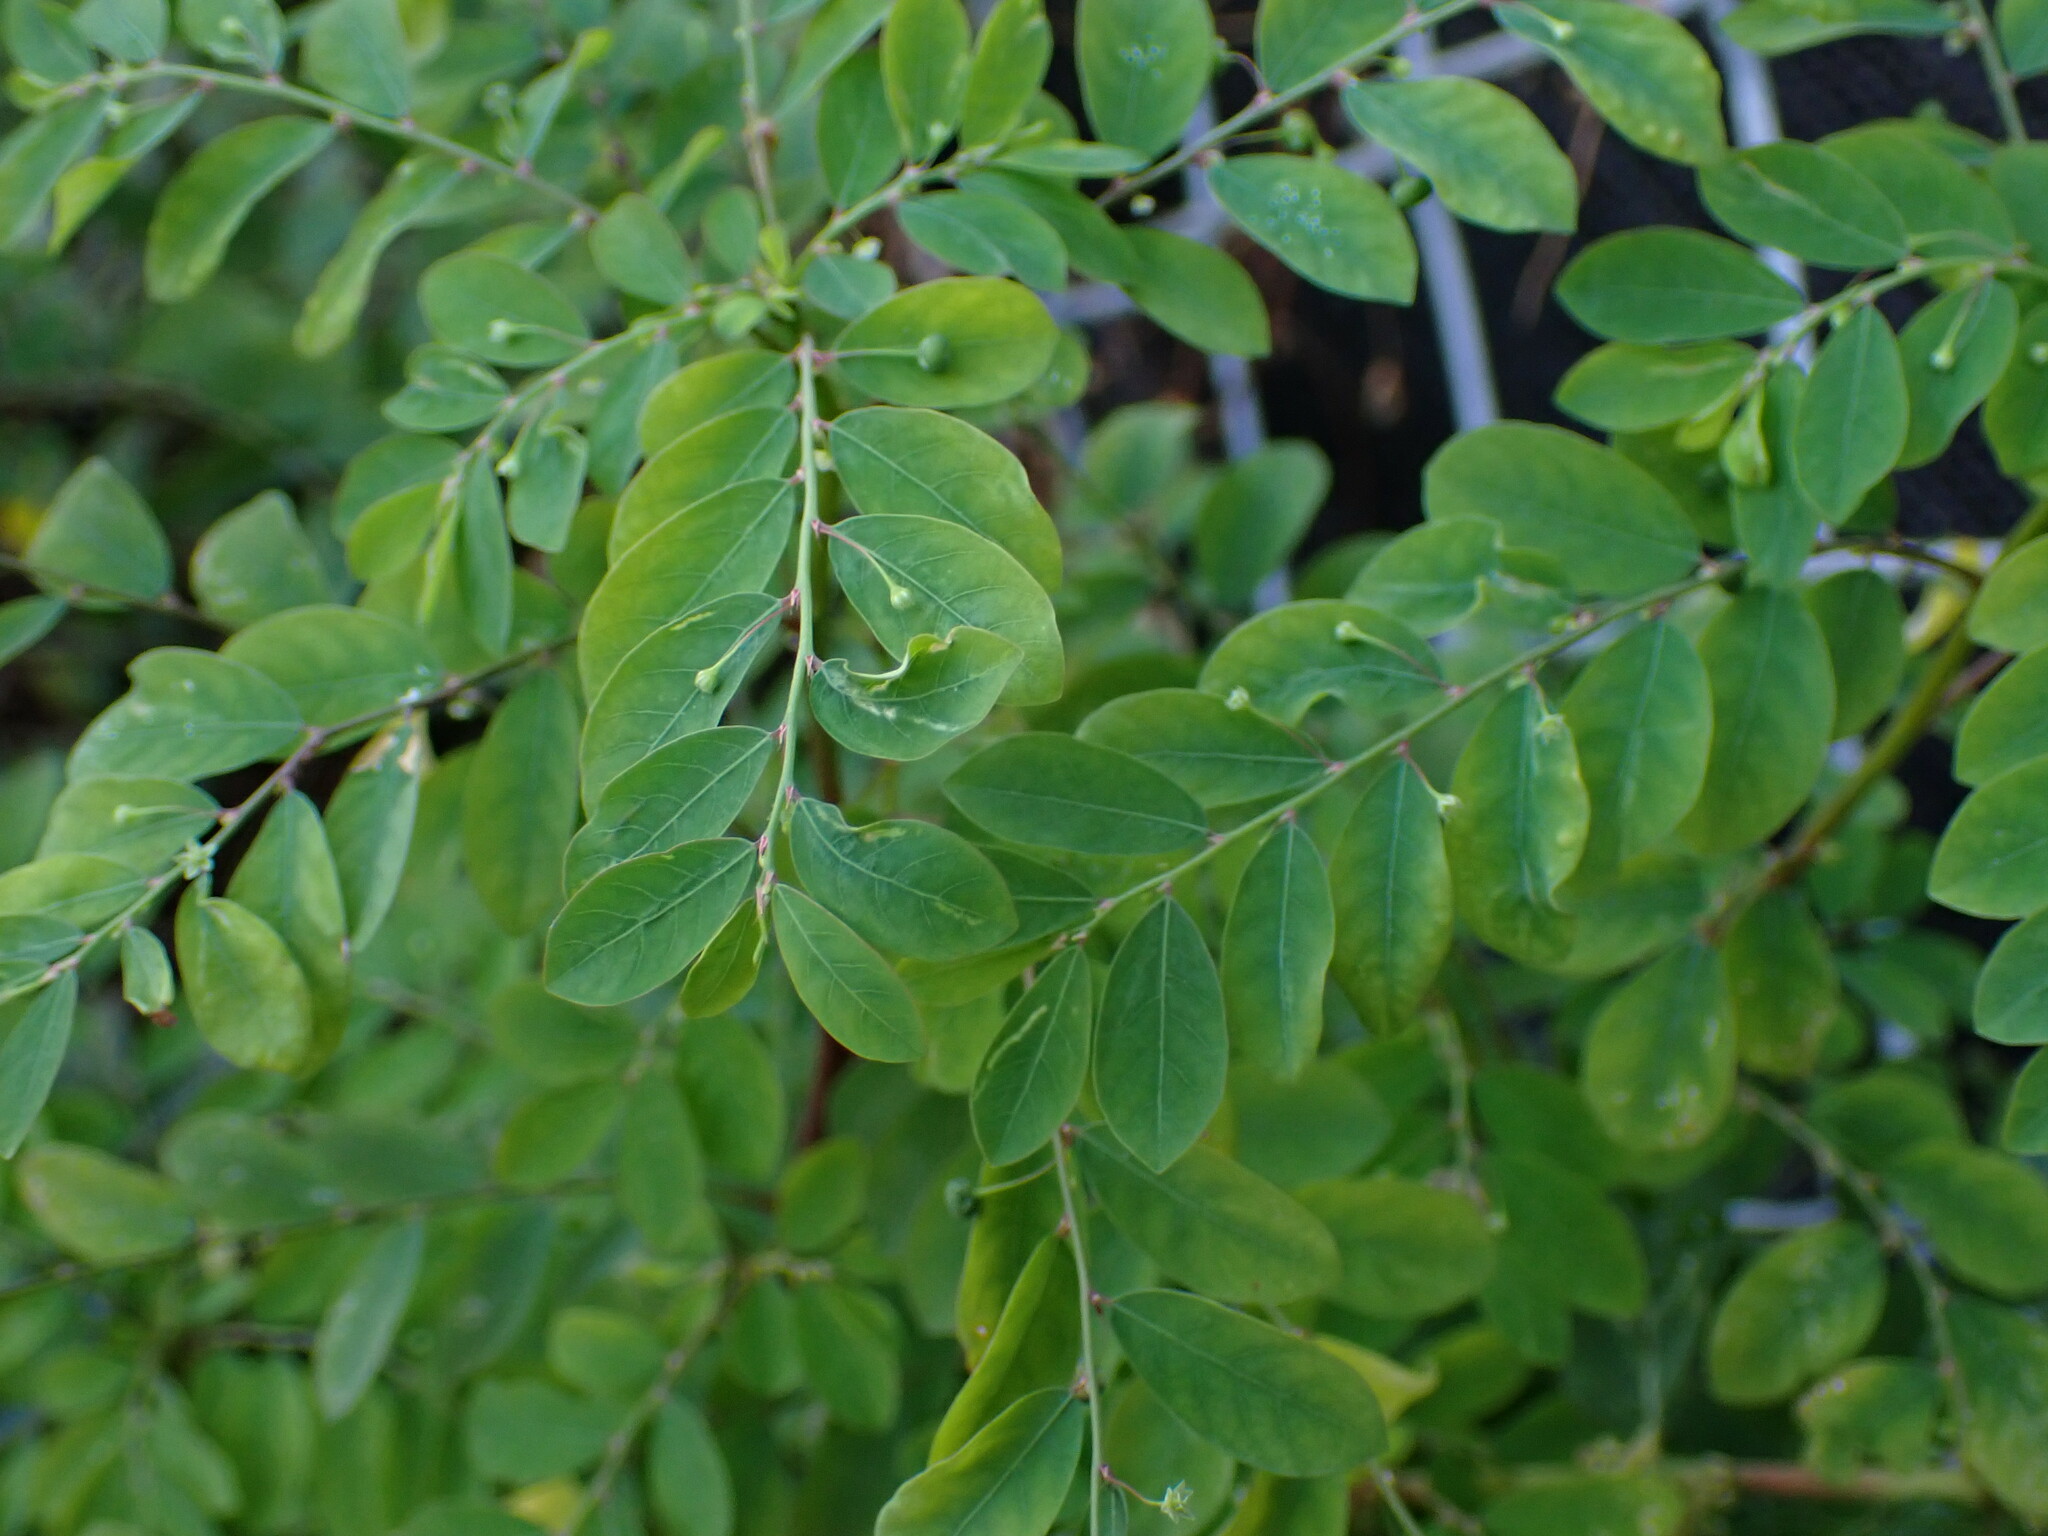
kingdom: Plantae
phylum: Tracheophyta
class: Magnoliopsida
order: Malpighiales
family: Phyllanthaceae
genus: Phyllanthus
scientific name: Phyllanthus tenellus
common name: Mascarene island leaf-flower
